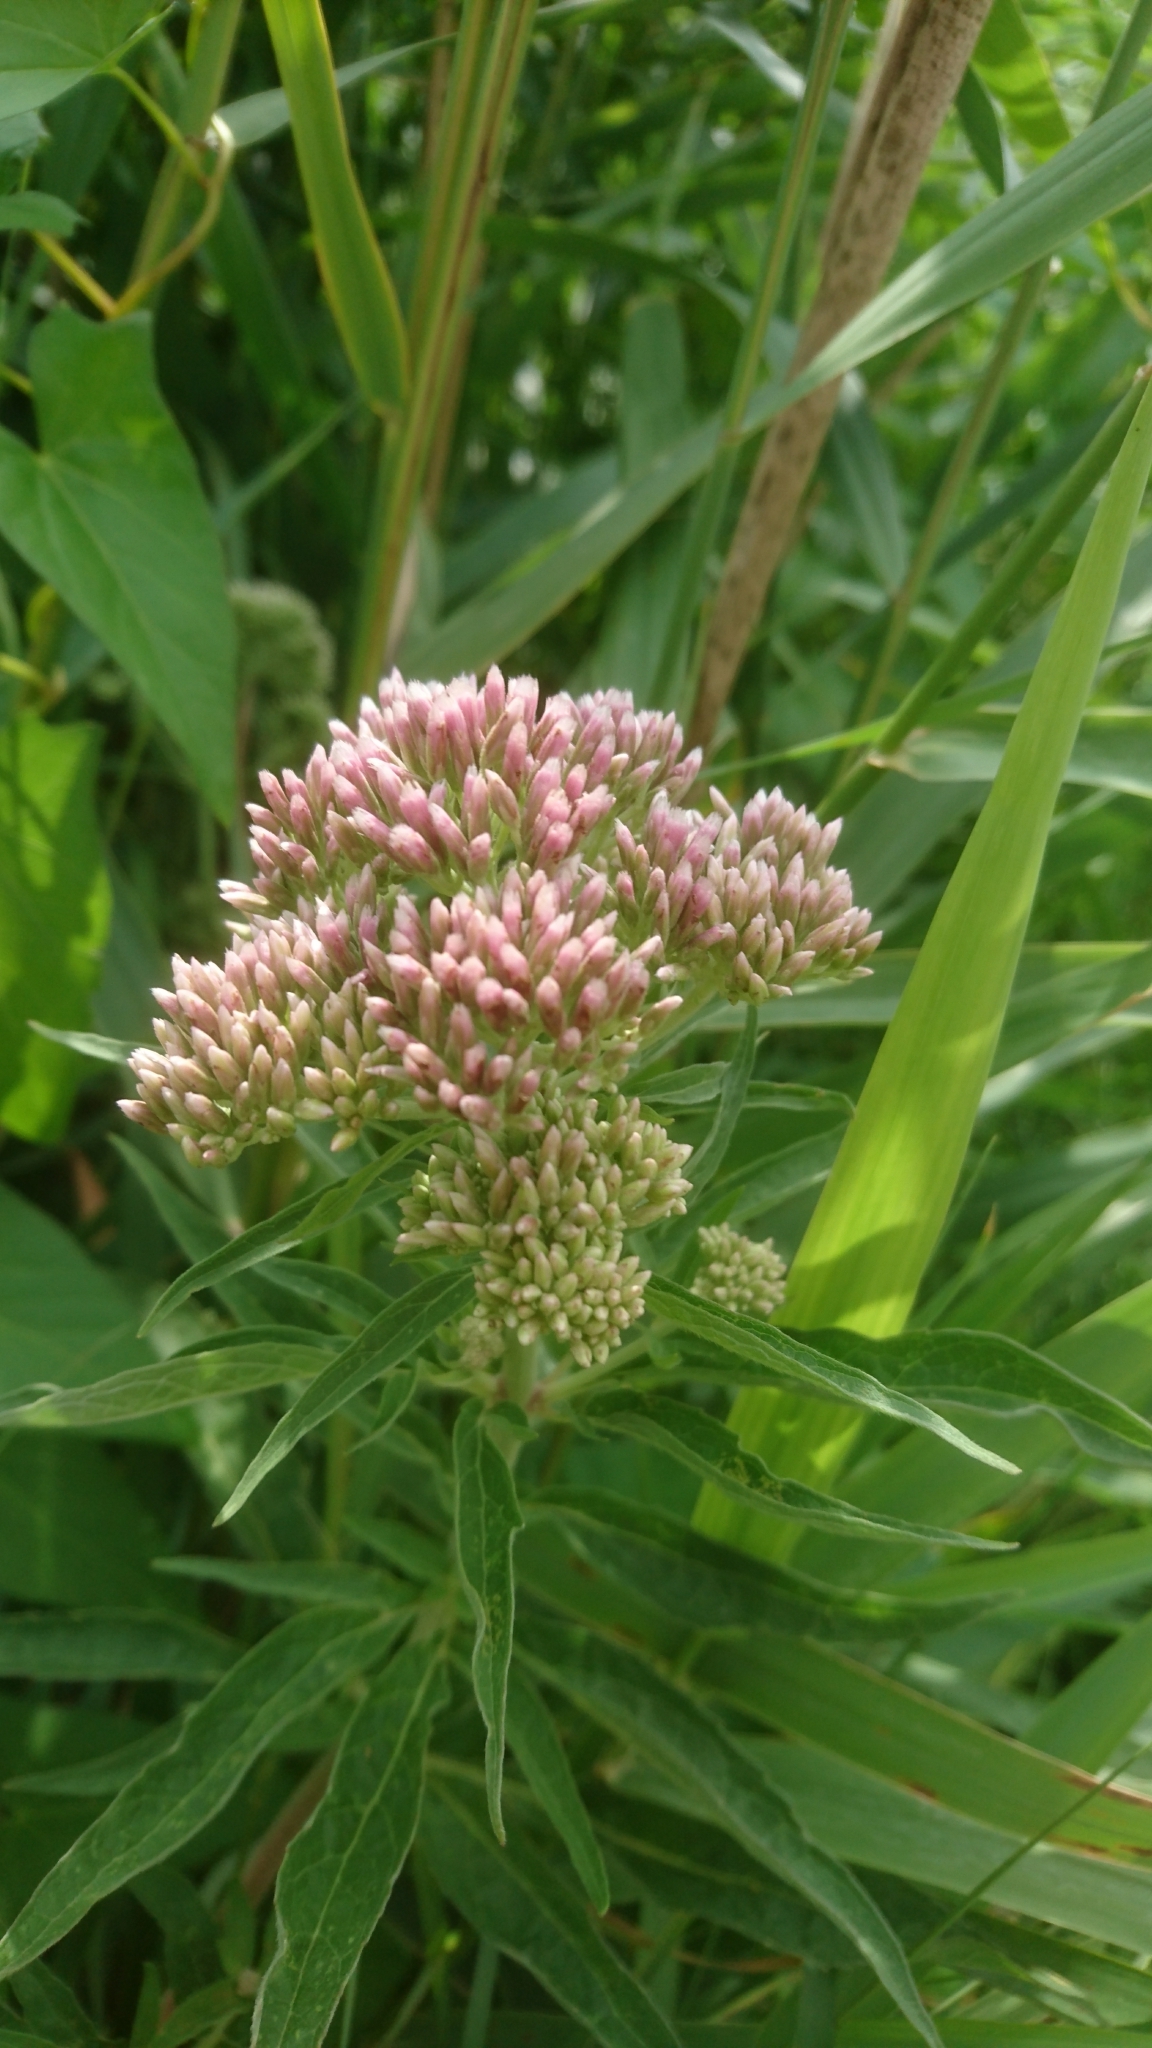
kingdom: Plantae
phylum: Tracheophyta
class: Magnoliopsida
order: Asterales
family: Asteraceae
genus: Eupatorium
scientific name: Eupatorium cannabinum
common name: Hemp-agrimony
